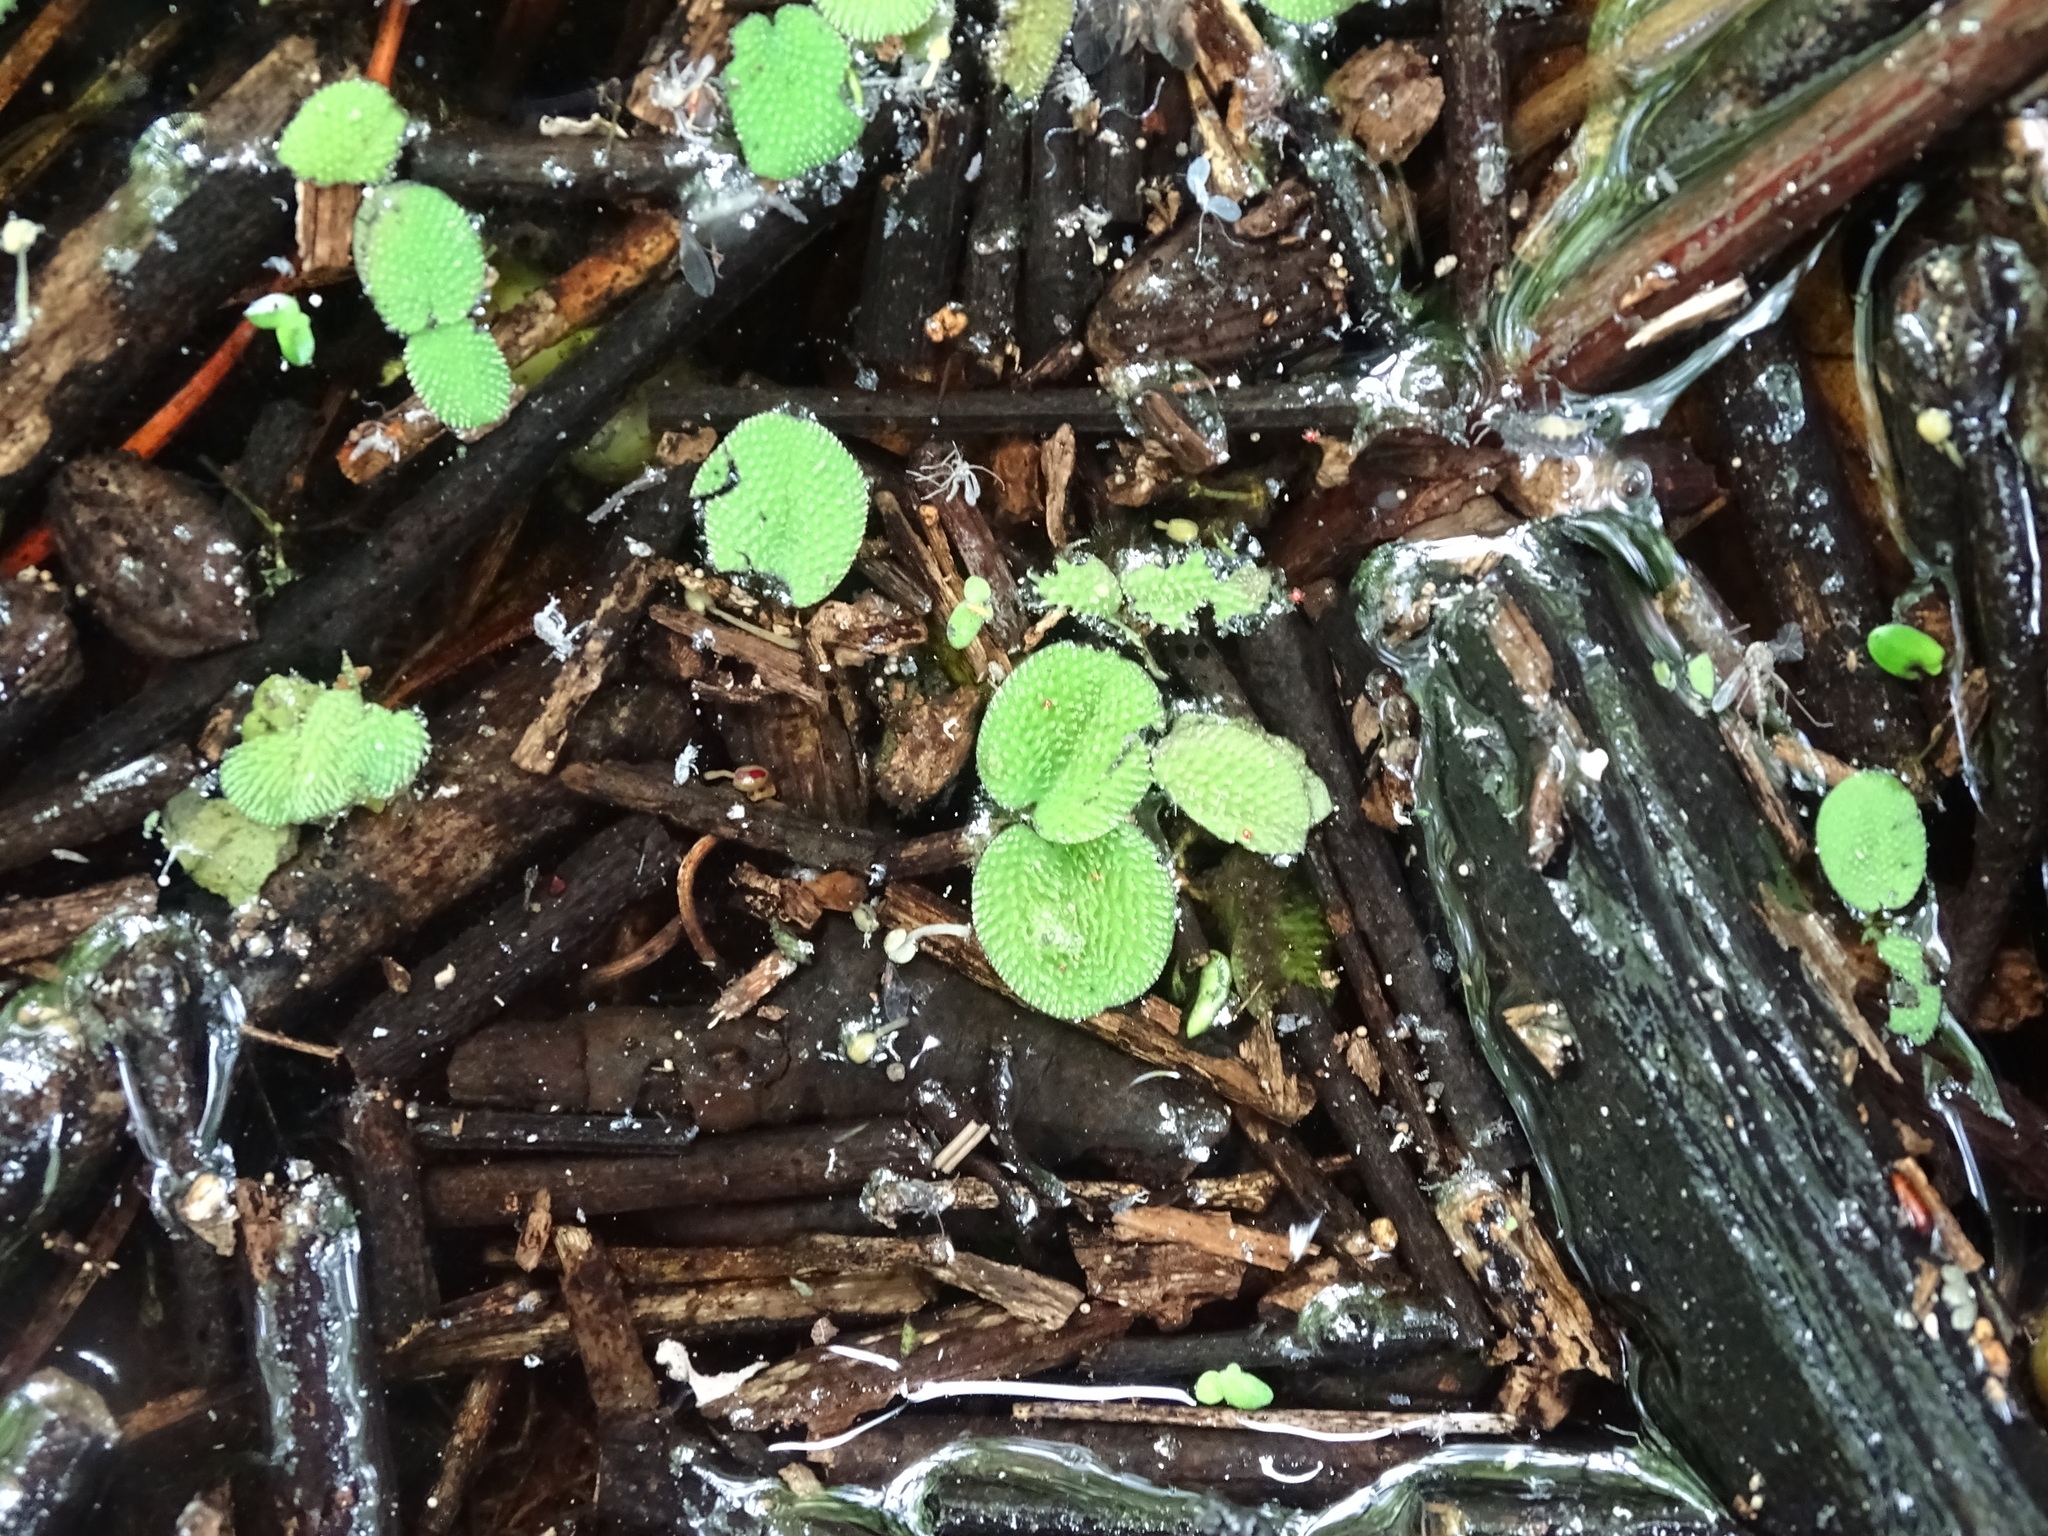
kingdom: Plantae
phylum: Tracheophyta
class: Polypodiopsida
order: Salviniales
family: Salviniaceae
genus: Salvinia
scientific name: Salvinia minima
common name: Water spangles
